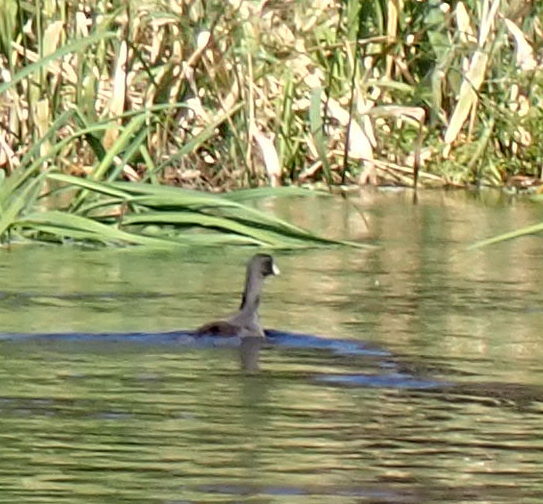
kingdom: Animalia
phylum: Chordata
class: Aves
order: Gruiformes
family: Rallidae
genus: Fulica
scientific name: Fulica americana
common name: American coot
